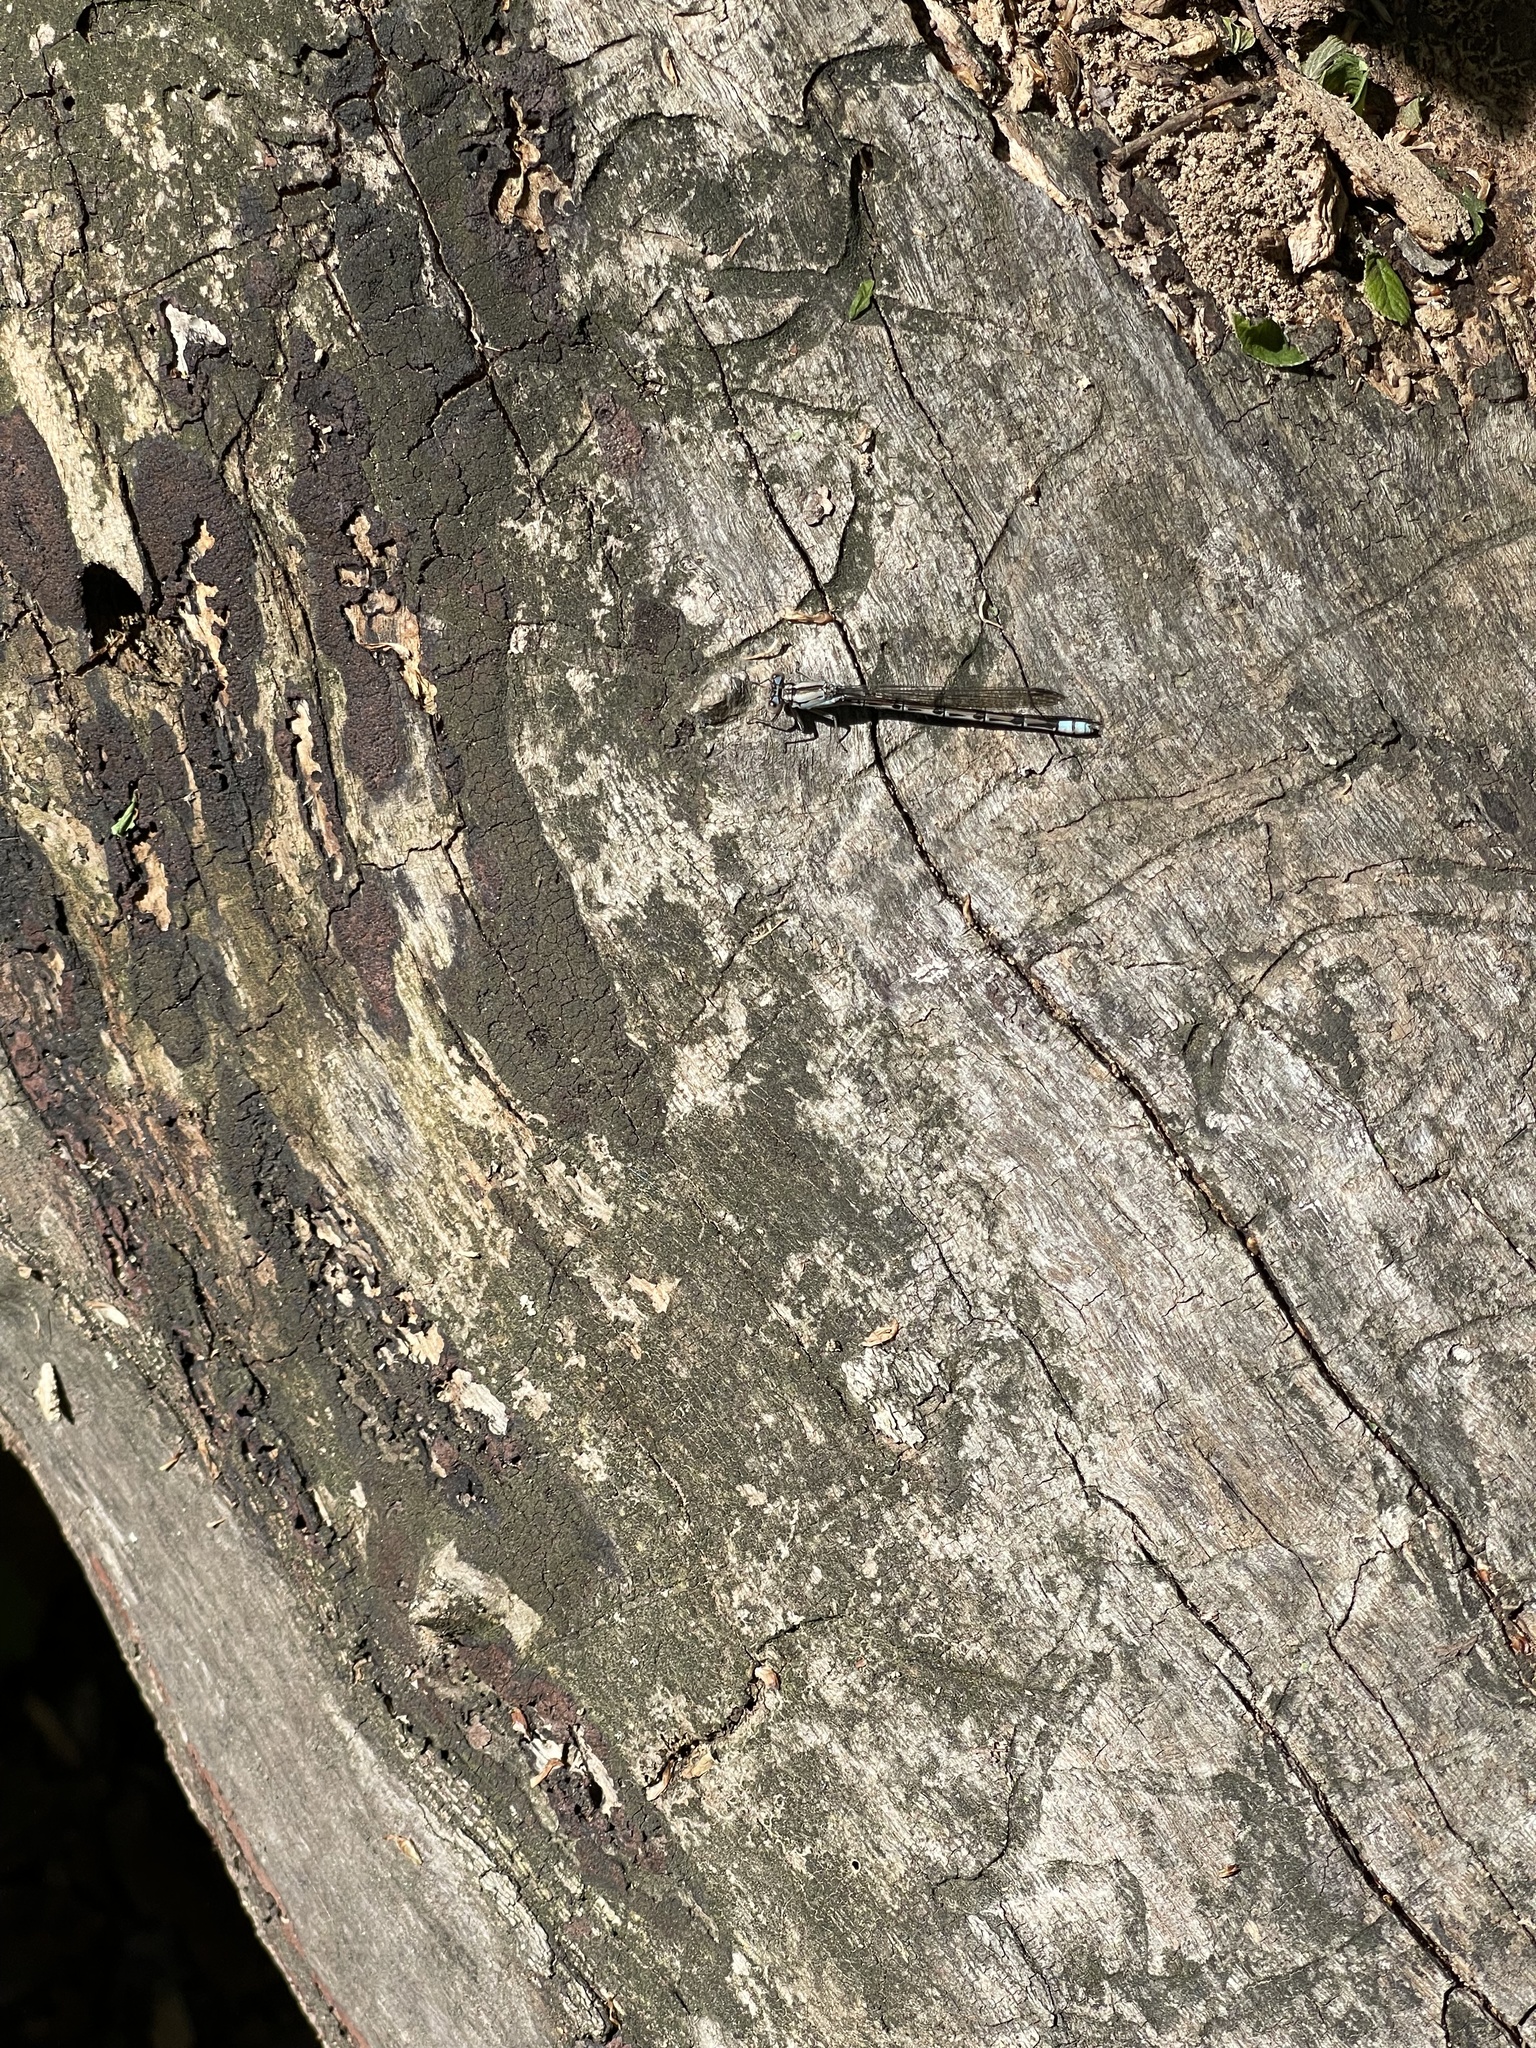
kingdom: Animalia
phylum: Arthropoda
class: Insecta
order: Odonata
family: Coenagrionidae
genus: Argia
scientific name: Argia funebris
